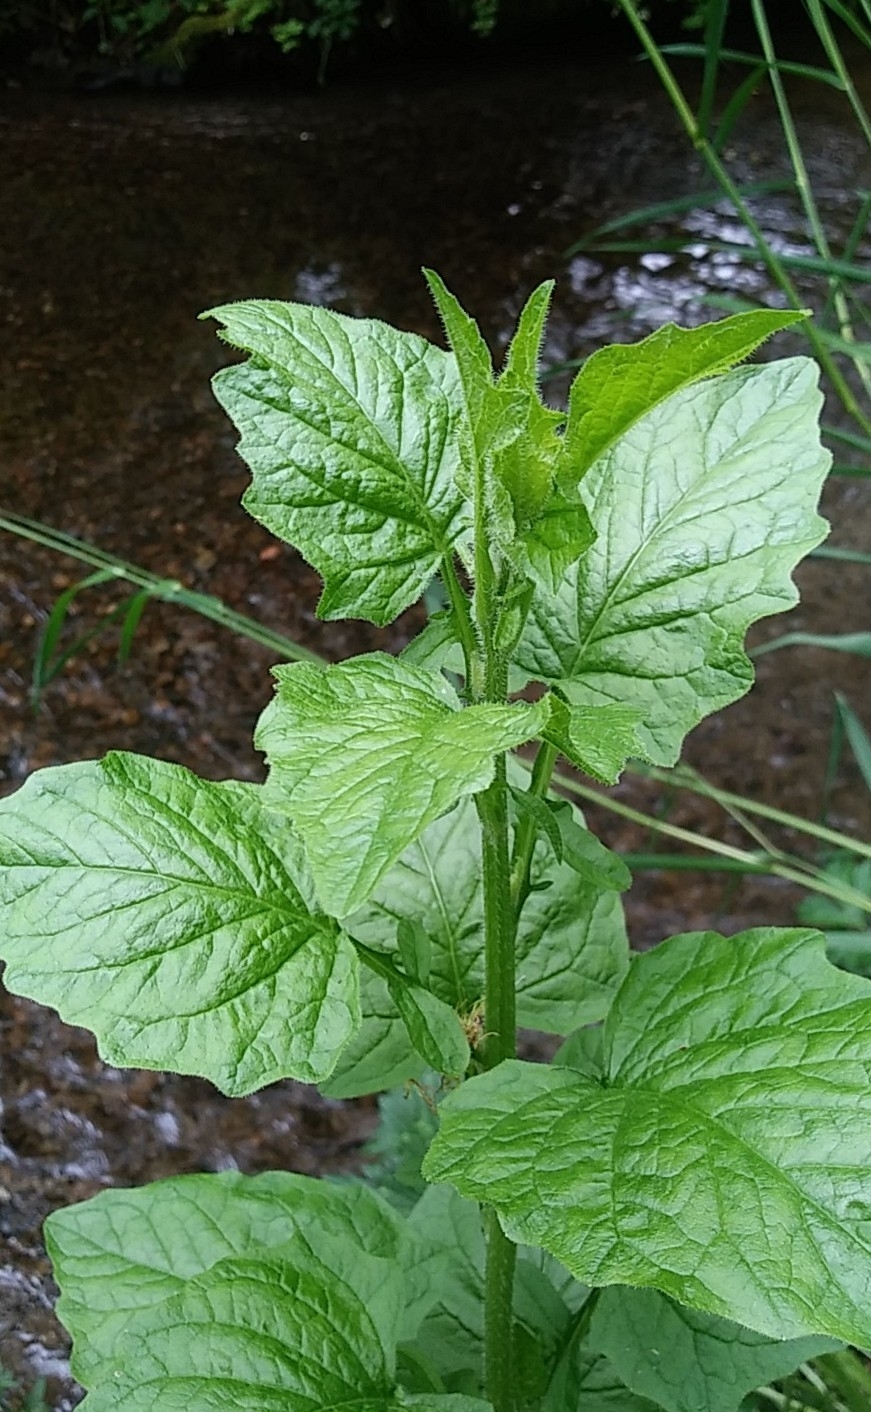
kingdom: Plantae
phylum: Tracheophyta
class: Magnoliopsida
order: Asterales
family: Asteraceae
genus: Lapsana
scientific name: Lapsana communis
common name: Nipplewort
